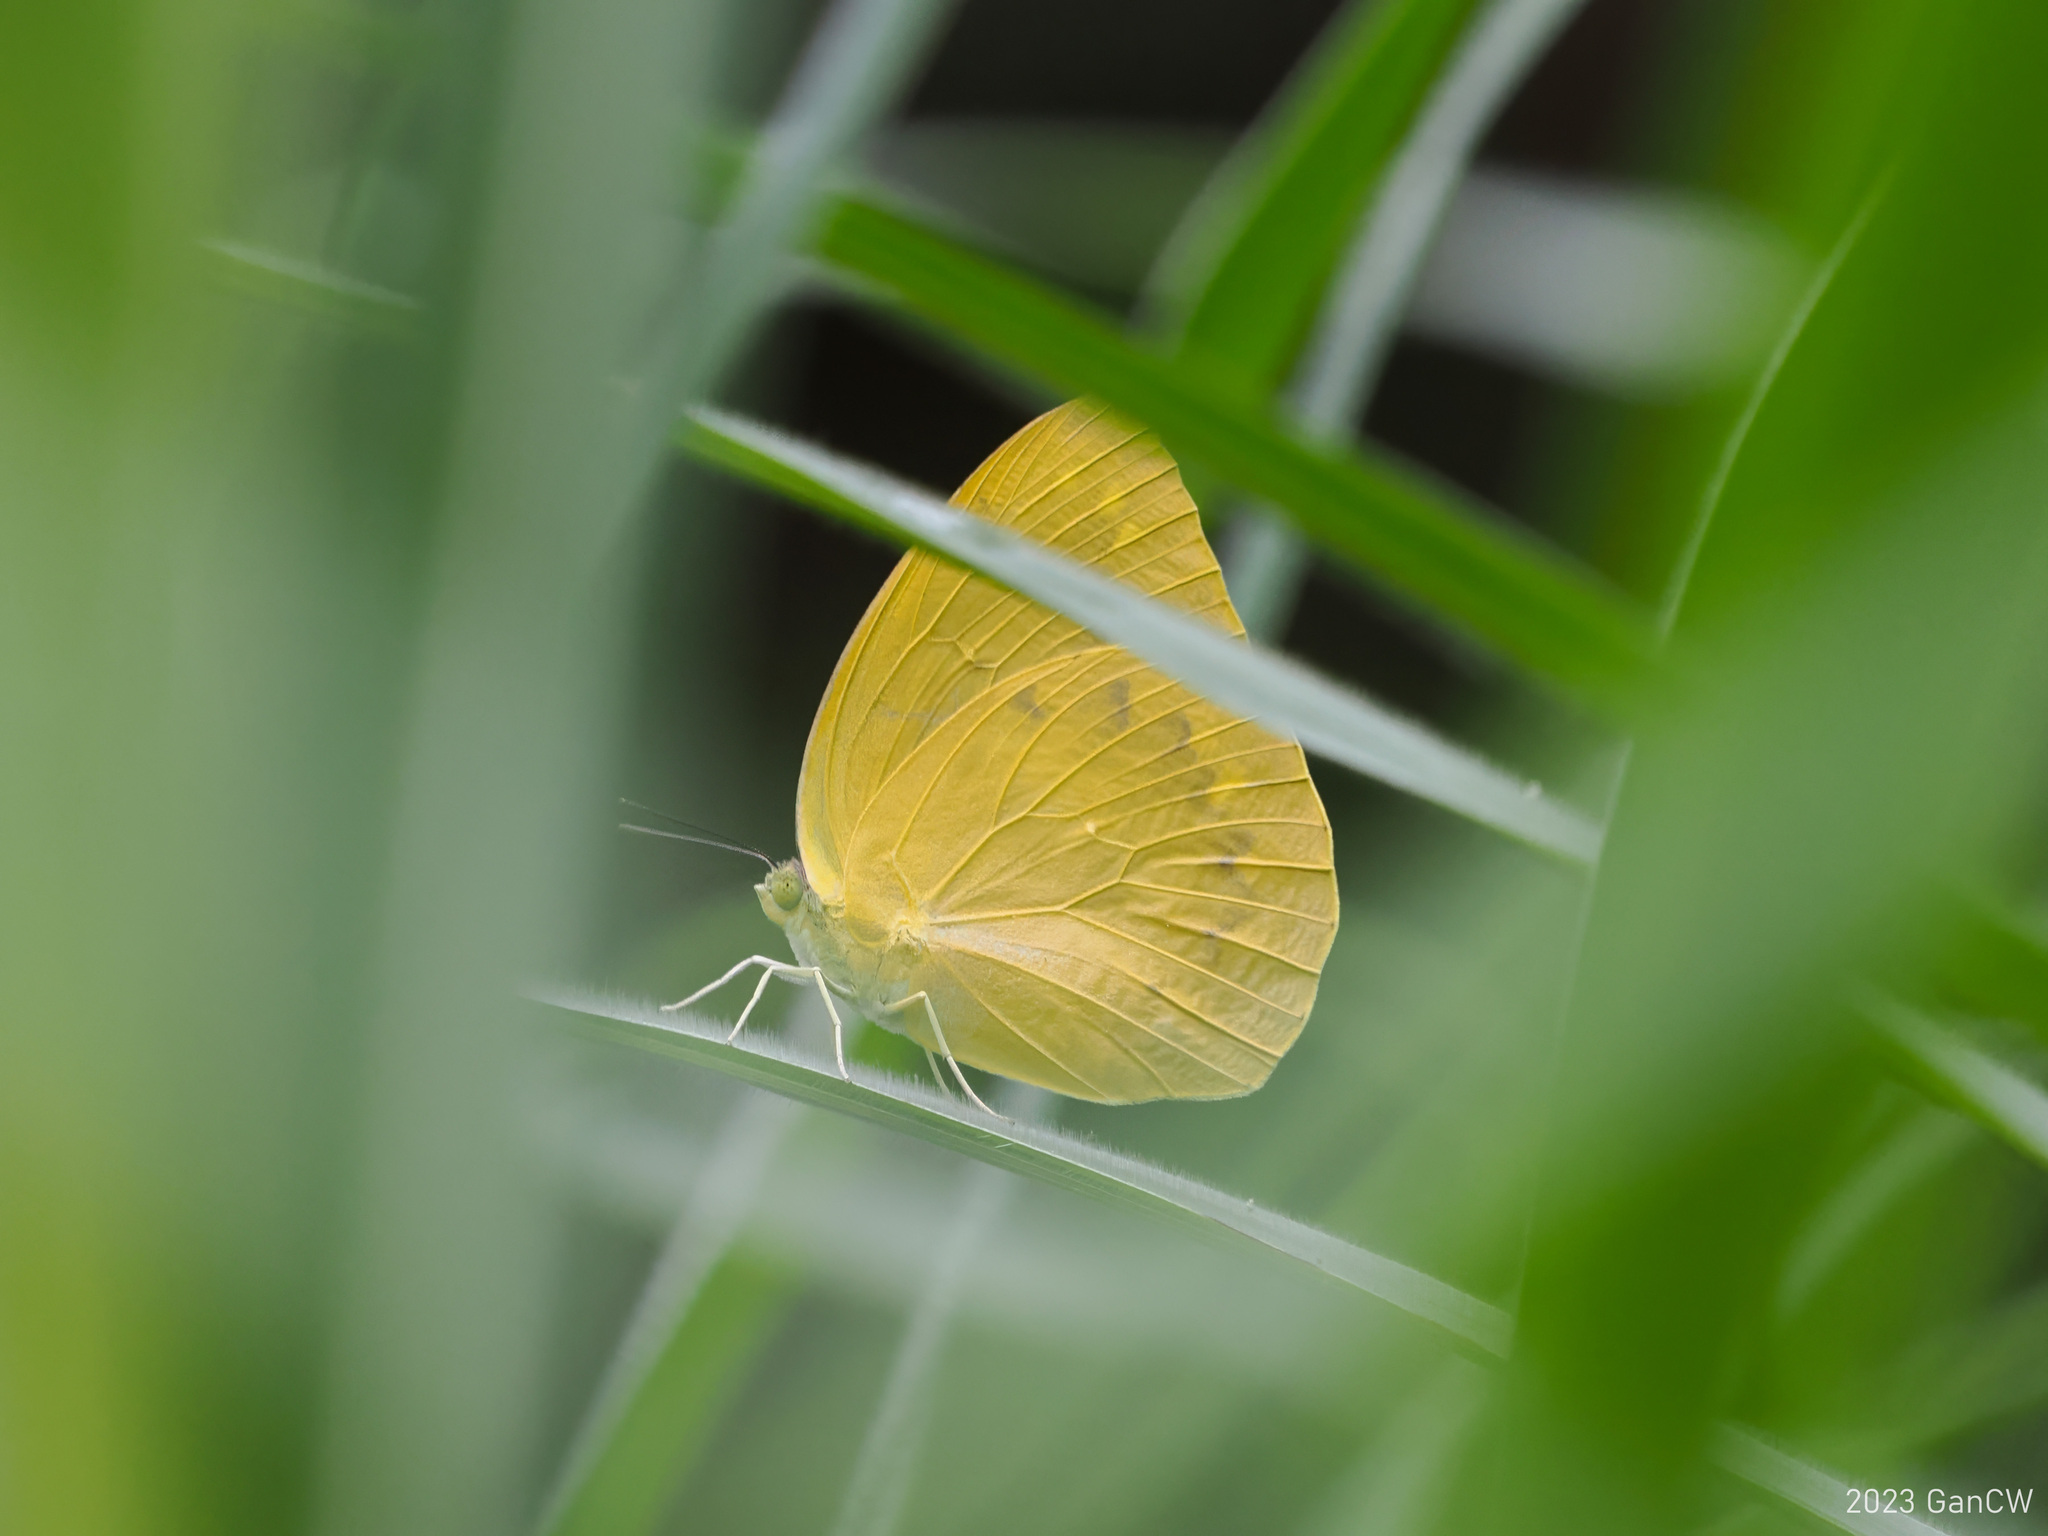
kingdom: Animalia
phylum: Arthropoda
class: Insecta
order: Lepidoptera
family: Pieridae
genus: Catopsilia
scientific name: Catopsilia pomona
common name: Common emigrant
